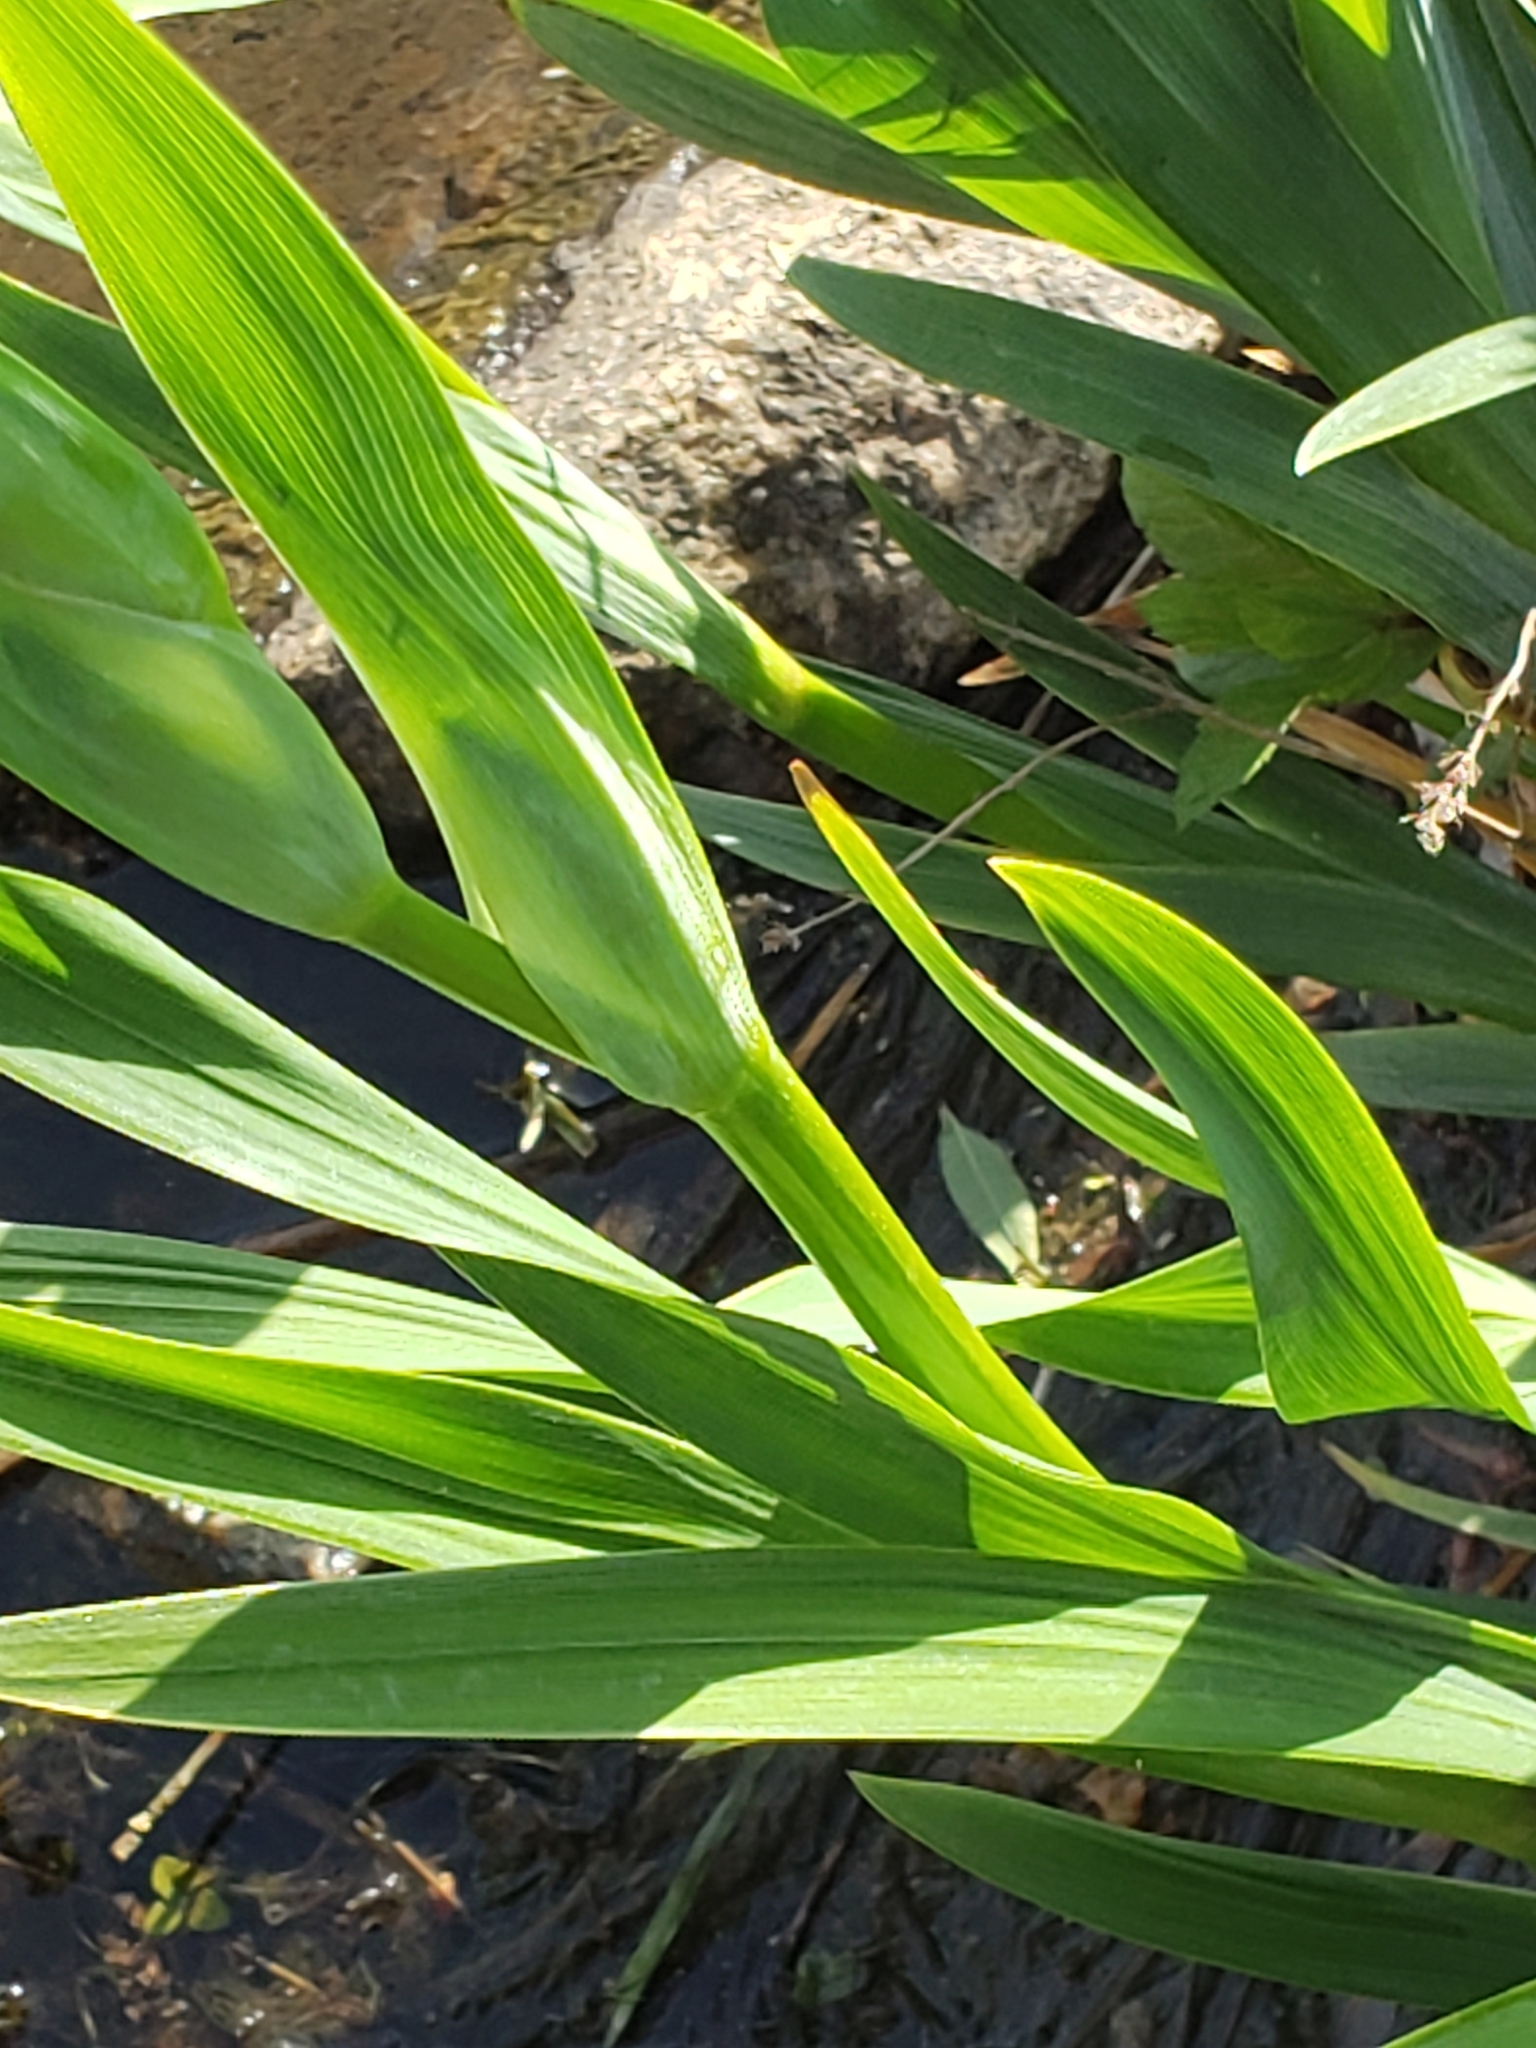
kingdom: Plantae
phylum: Tracheophyta
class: Liliopsida
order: Alismatales
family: Araceae
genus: Peltandra
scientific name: Peltandra virginica
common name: Arrow arum
